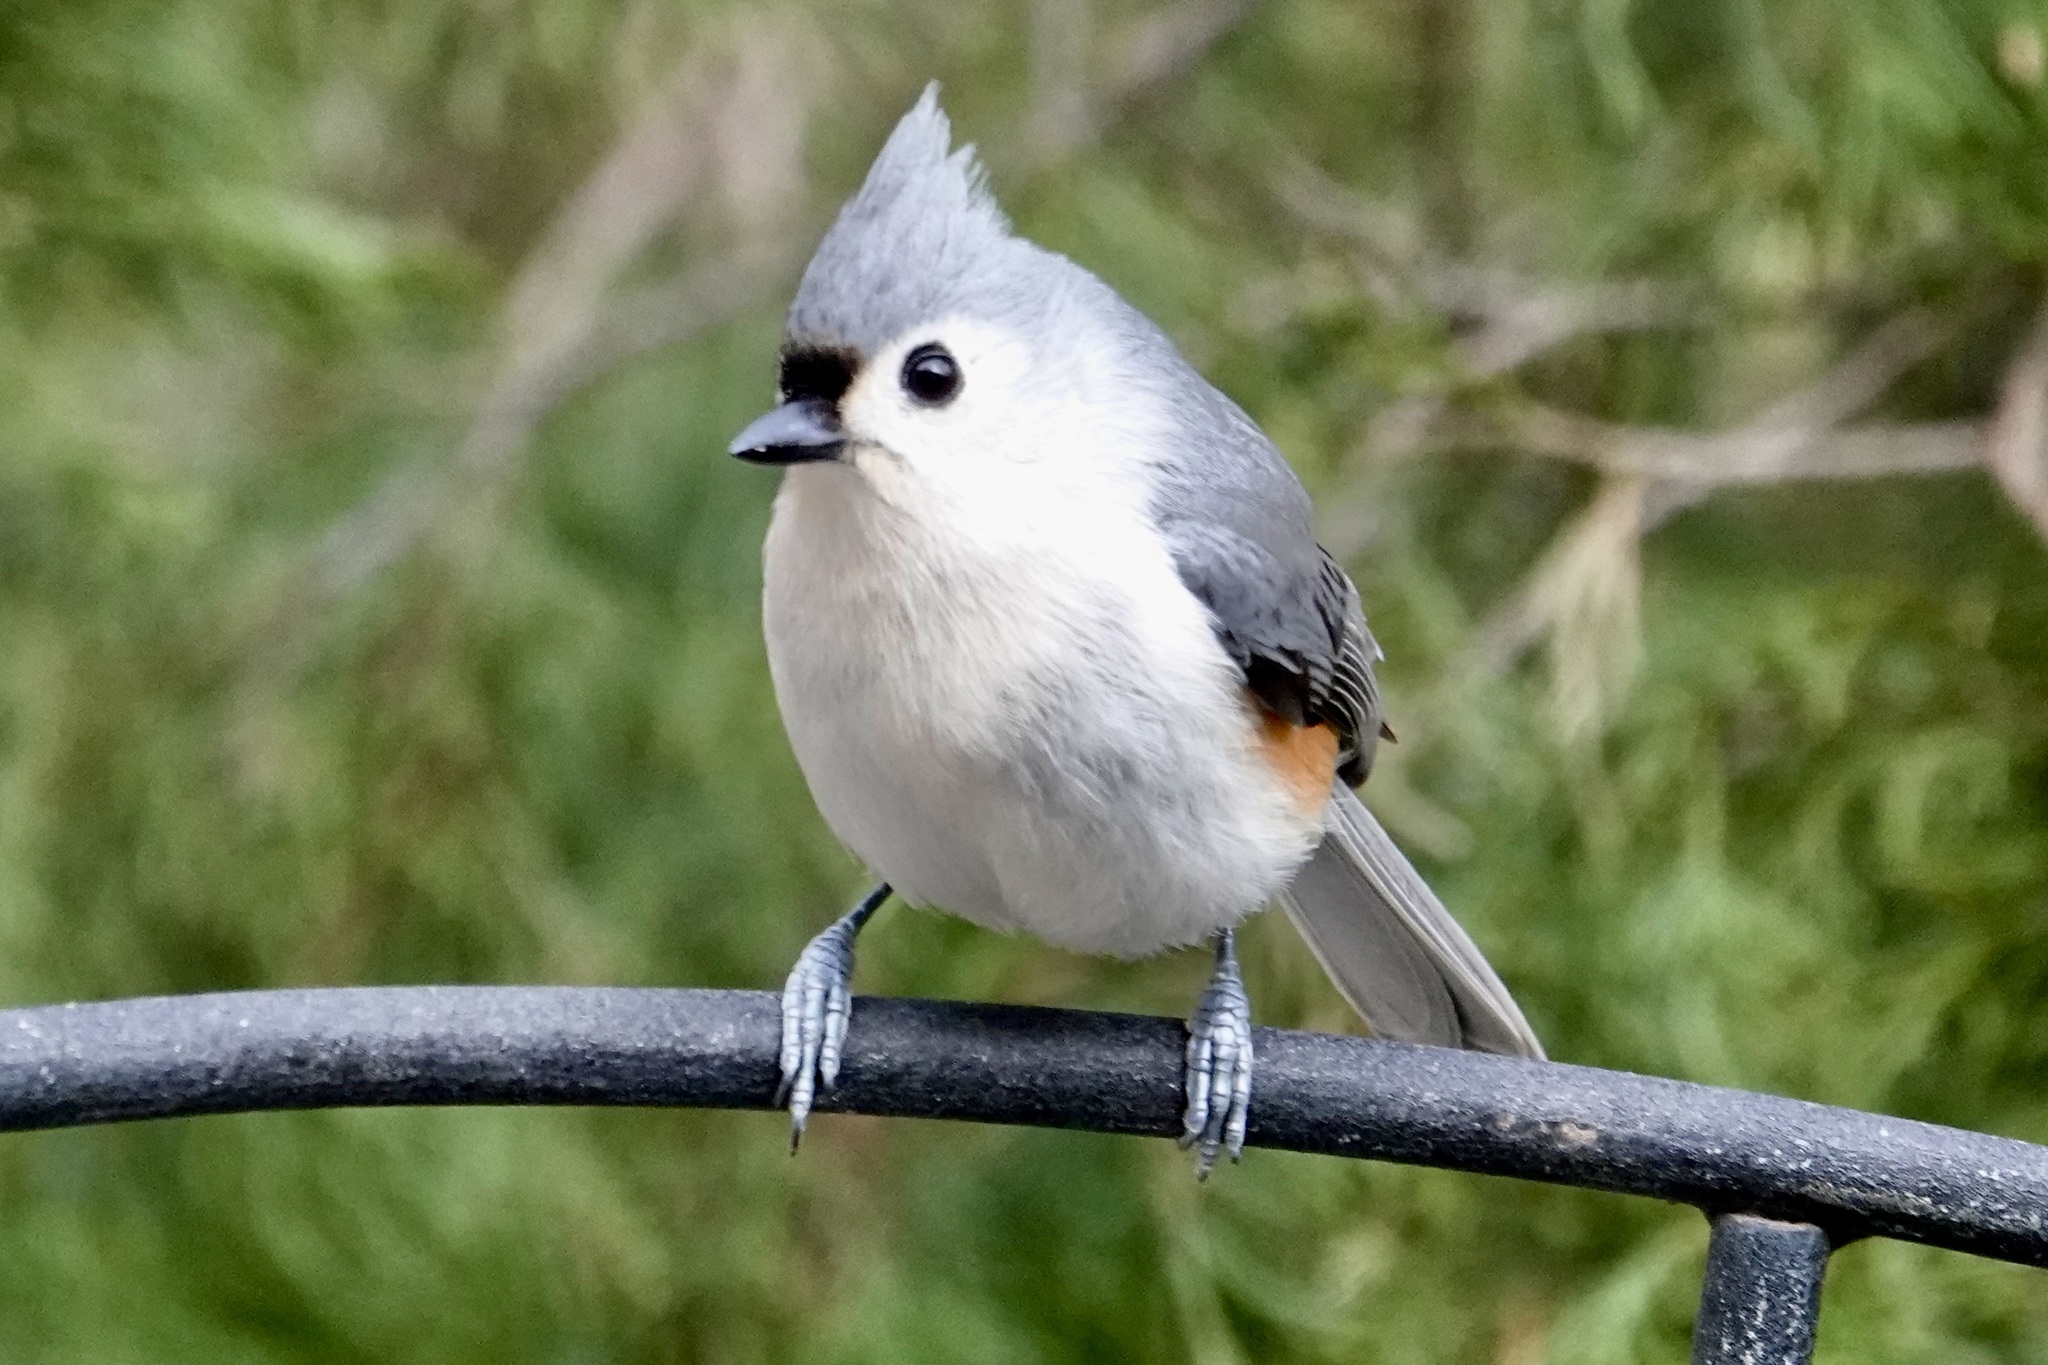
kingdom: Animalia
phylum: Chordata
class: Aves
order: Passeriformes
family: Paridae
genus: Baeolophus
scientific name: Baeolophus bicolor
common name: Tufted titmouse
